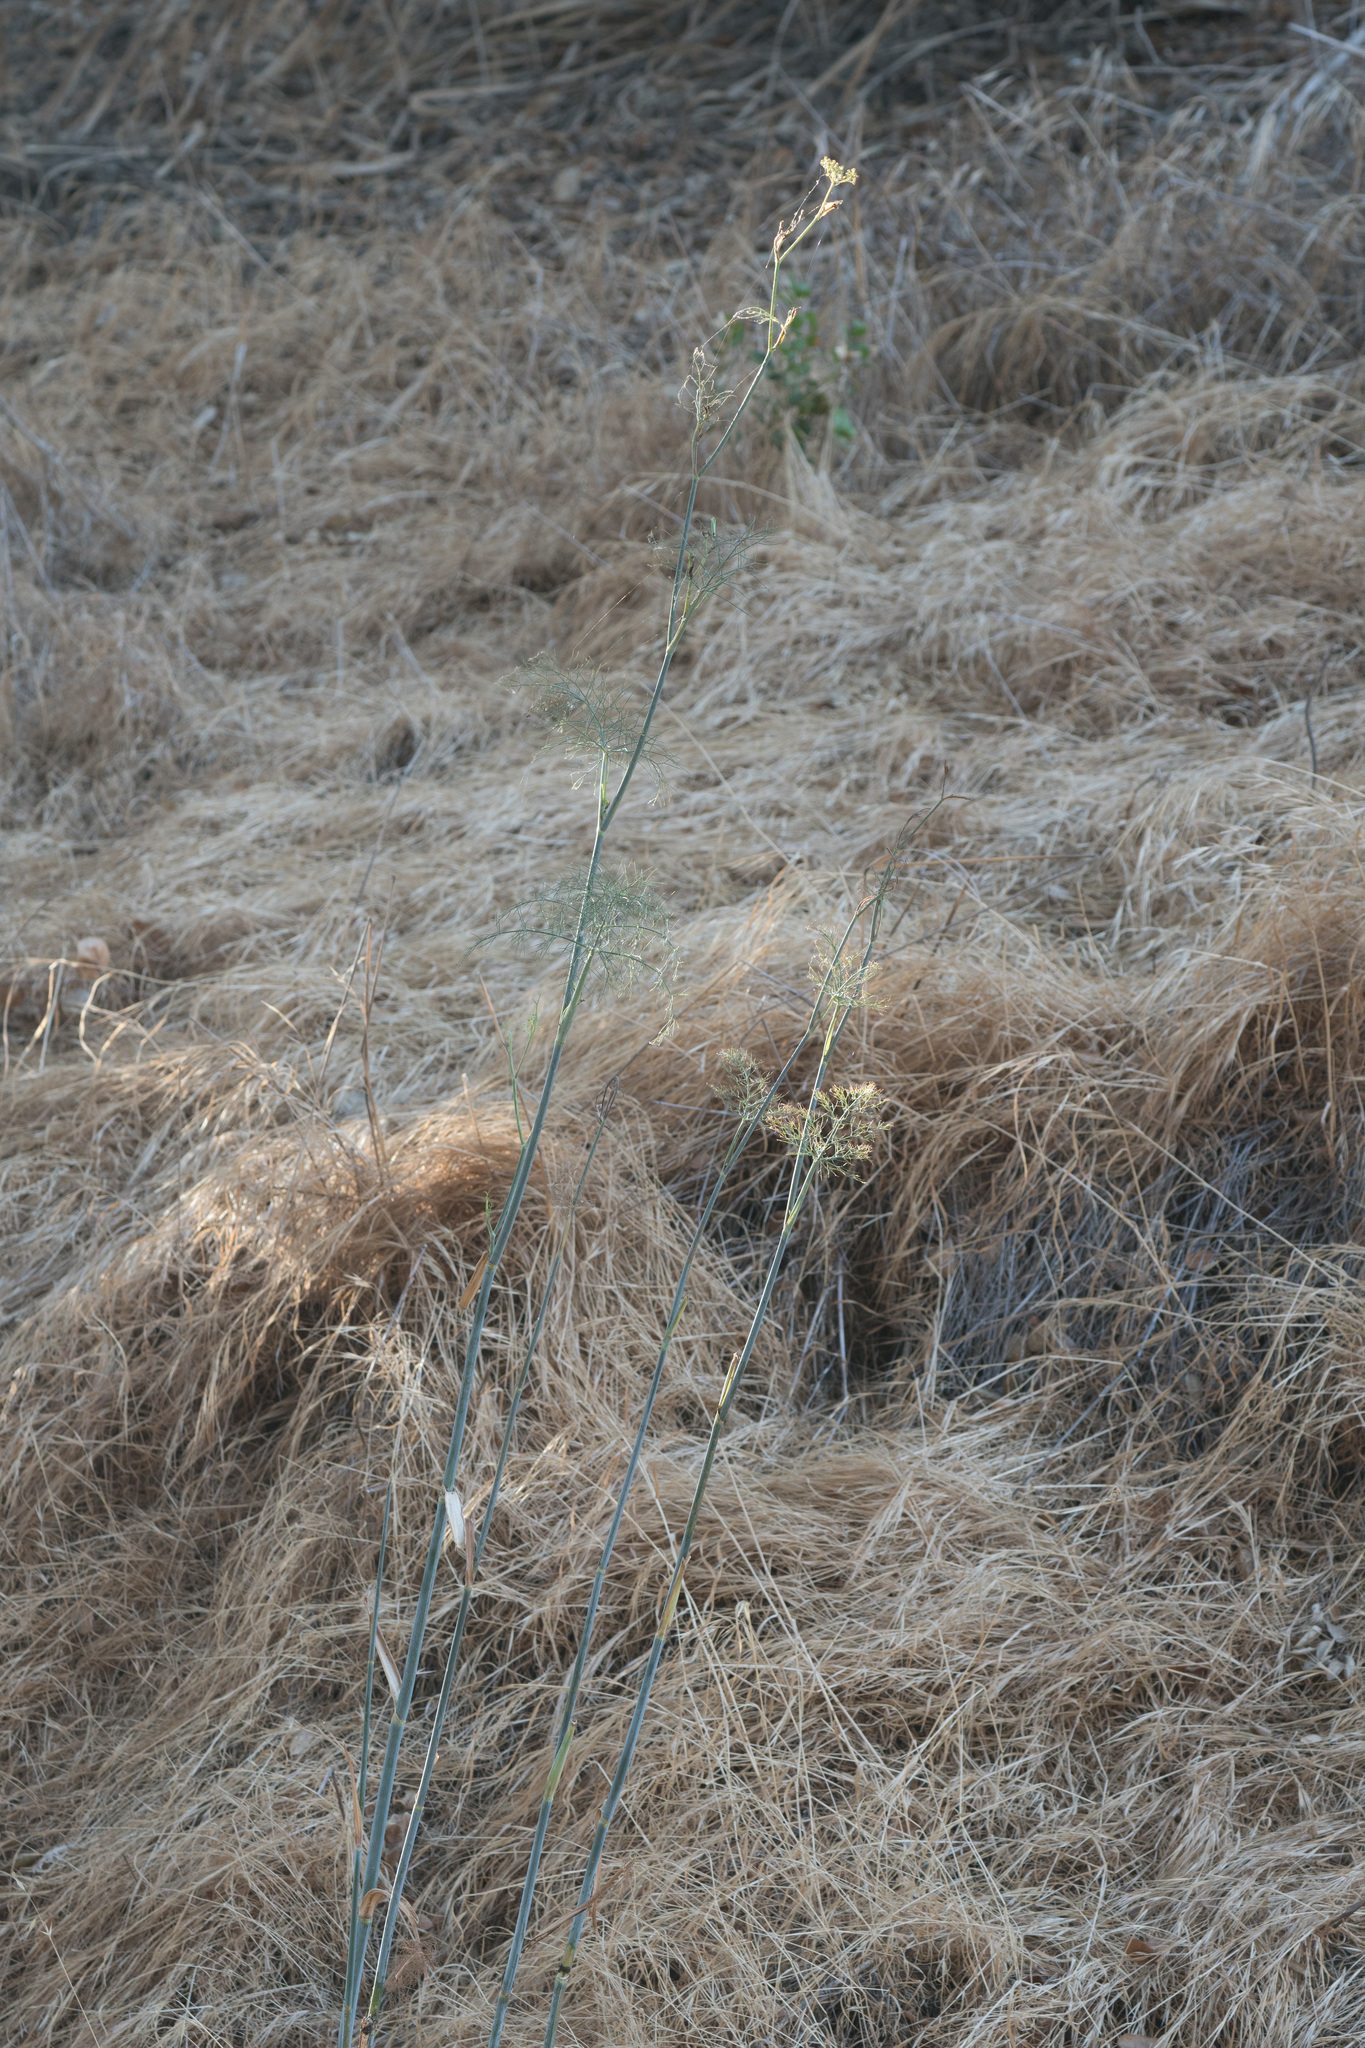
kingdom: Plantae
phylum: Tracheophyta
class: Magnoliopsida
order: Apiales
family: Apiaceae
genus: Foeniculum
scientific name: Foeniculum vulgare
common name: Fennel
